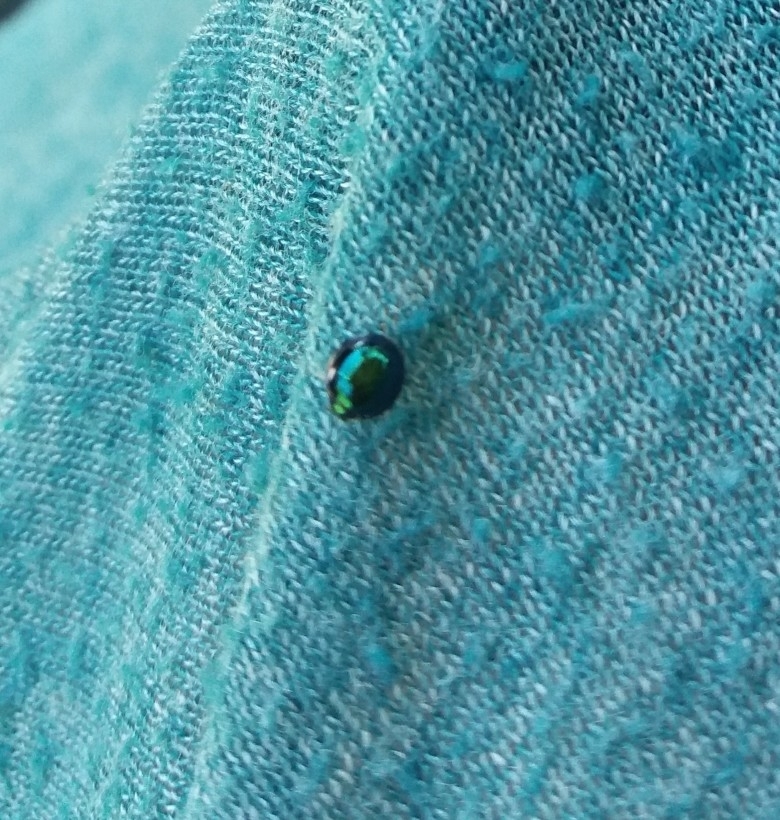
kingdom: Animalia
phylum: Arthropoda
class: Insecta
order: Coleoptera
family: Coccinellidae
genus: Halmus
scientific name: Halmus chalybeus
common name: Steel blue ladybird beetle
